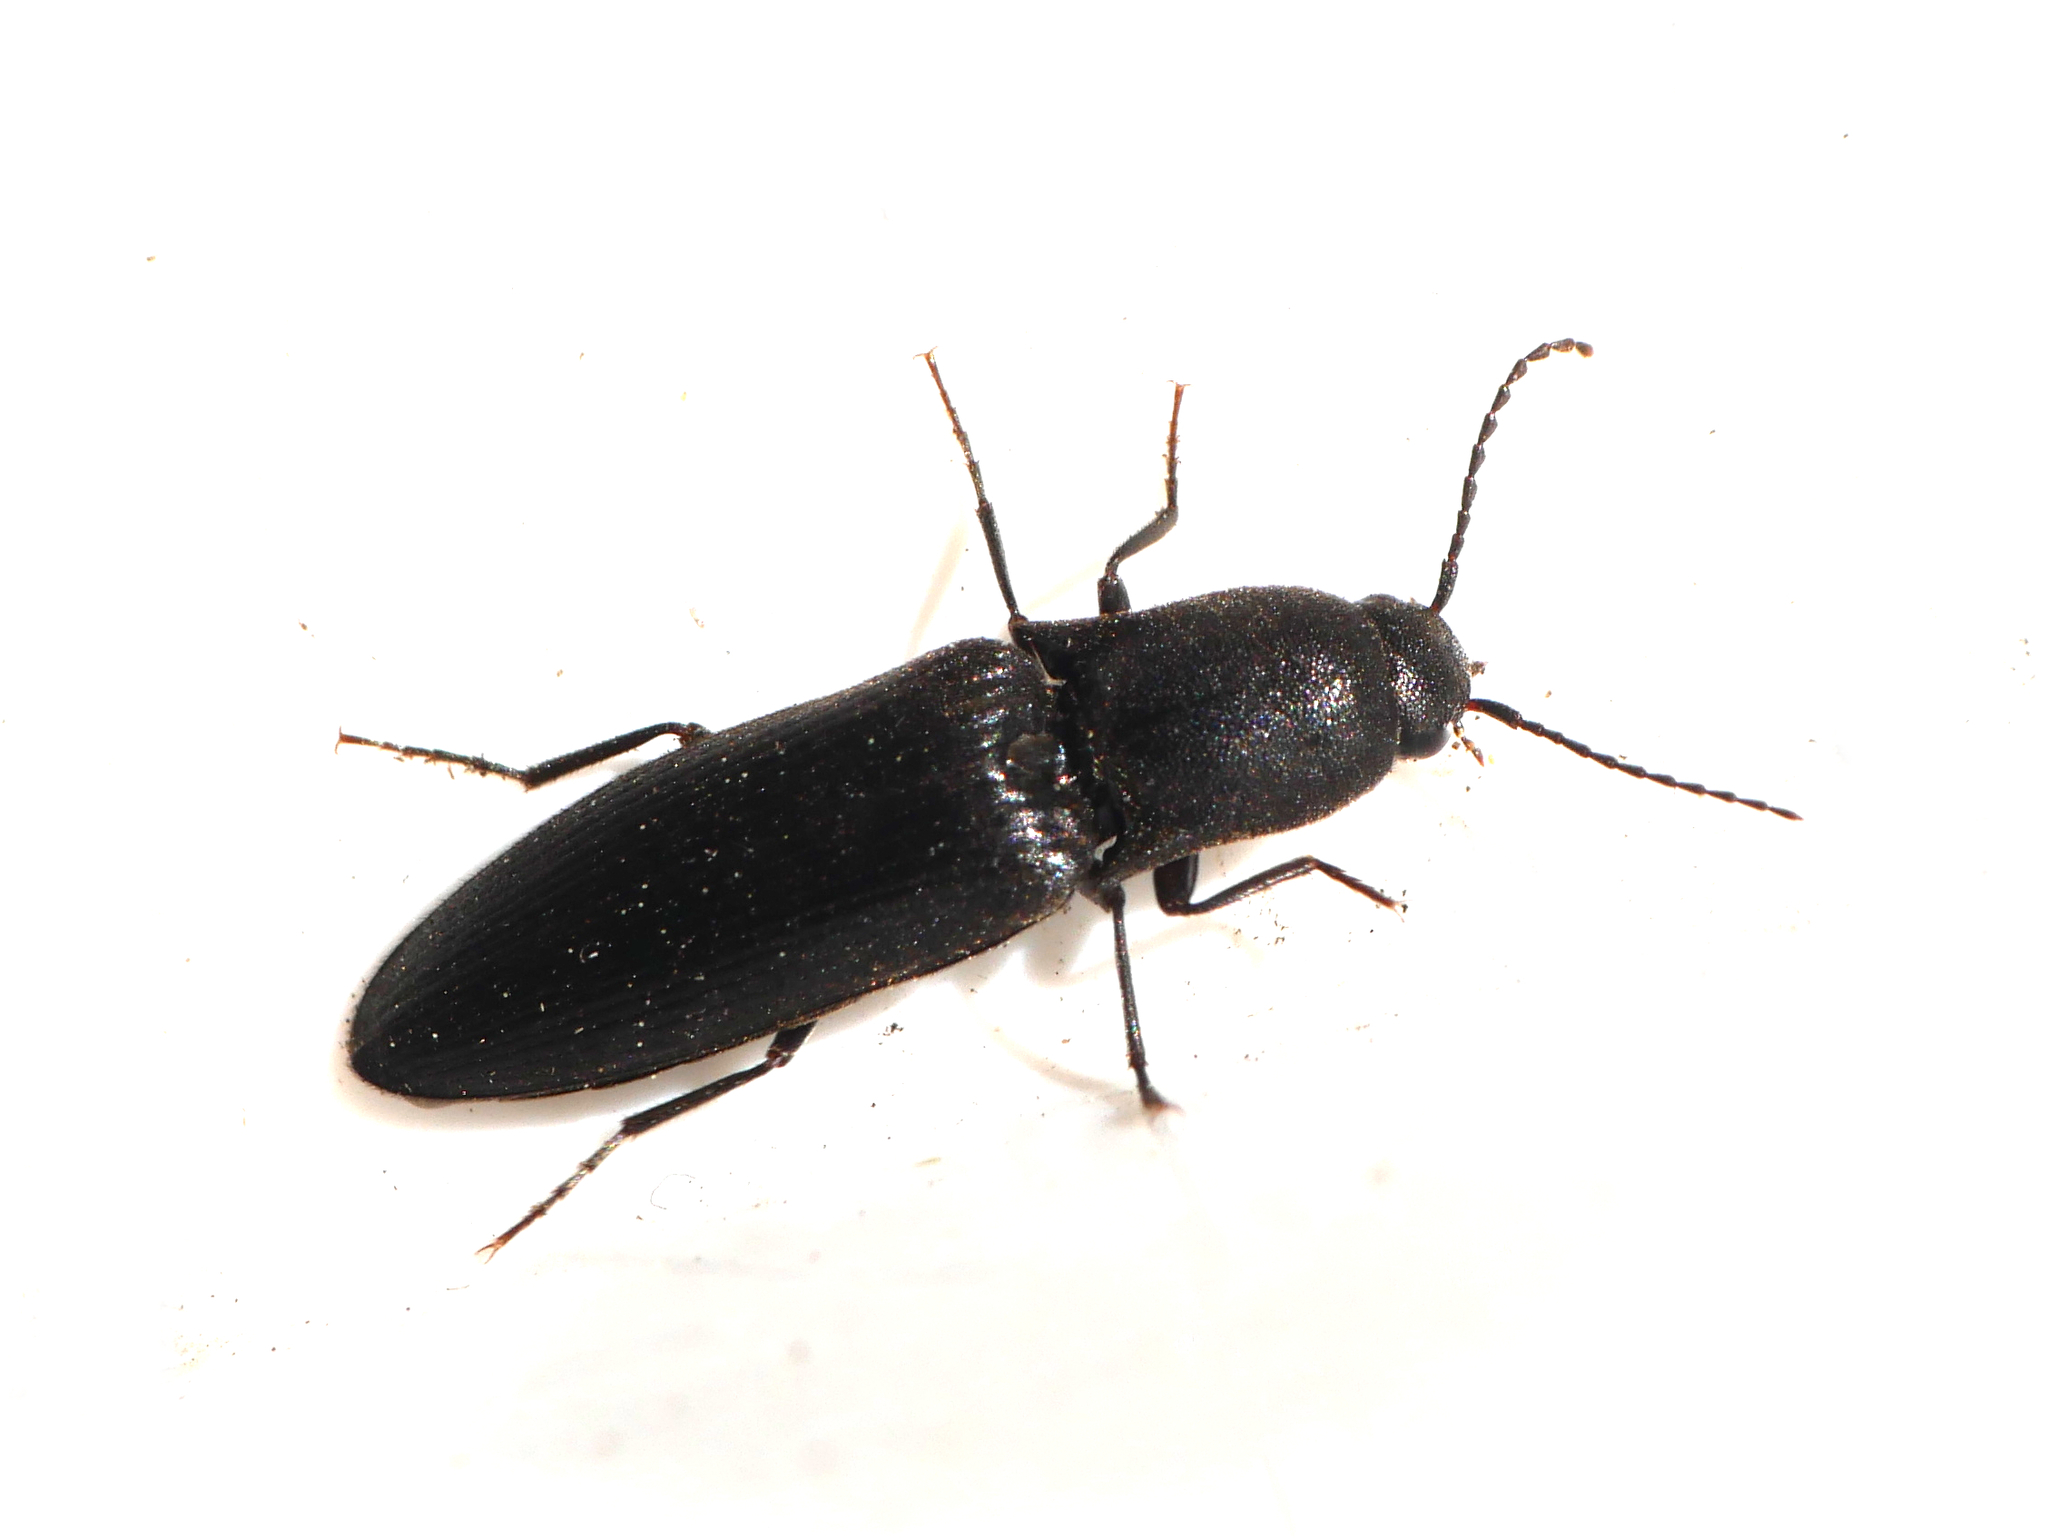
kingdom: Animalia
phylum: Arthropoda
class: Insecta
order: Coleoptera
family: Elateridae
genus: Ectinus
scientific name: Ectinus aterrimus
